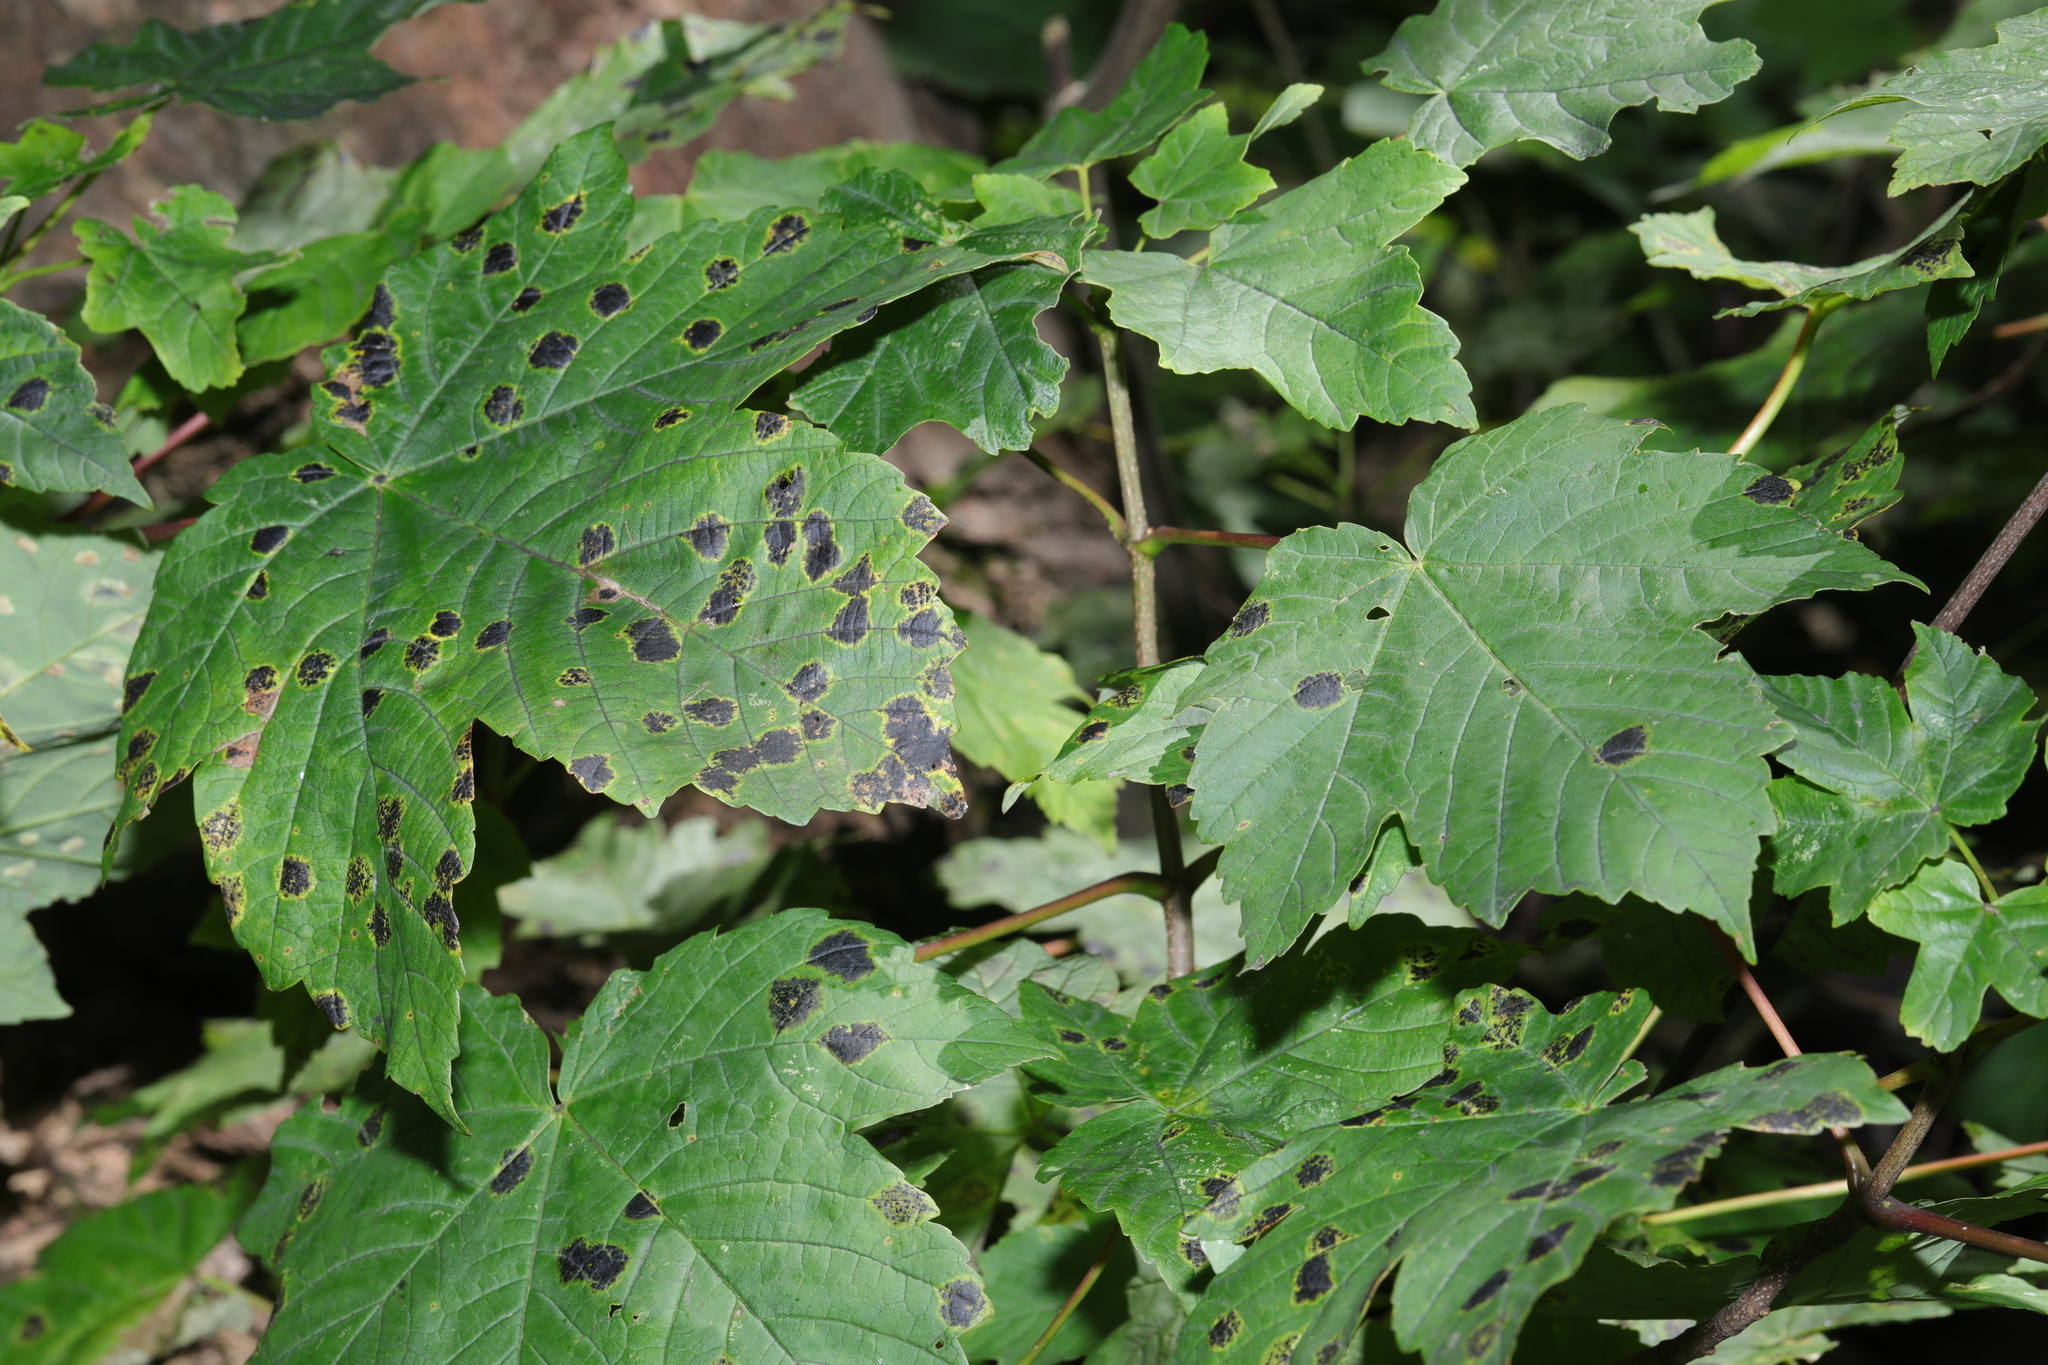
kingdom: Plantae
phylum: Tracheophyta
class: Magnoliopsida
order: Sapindales
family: Sapindaceae
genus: Acer
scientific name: Acer pseudoplatanus
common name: Sycamore
